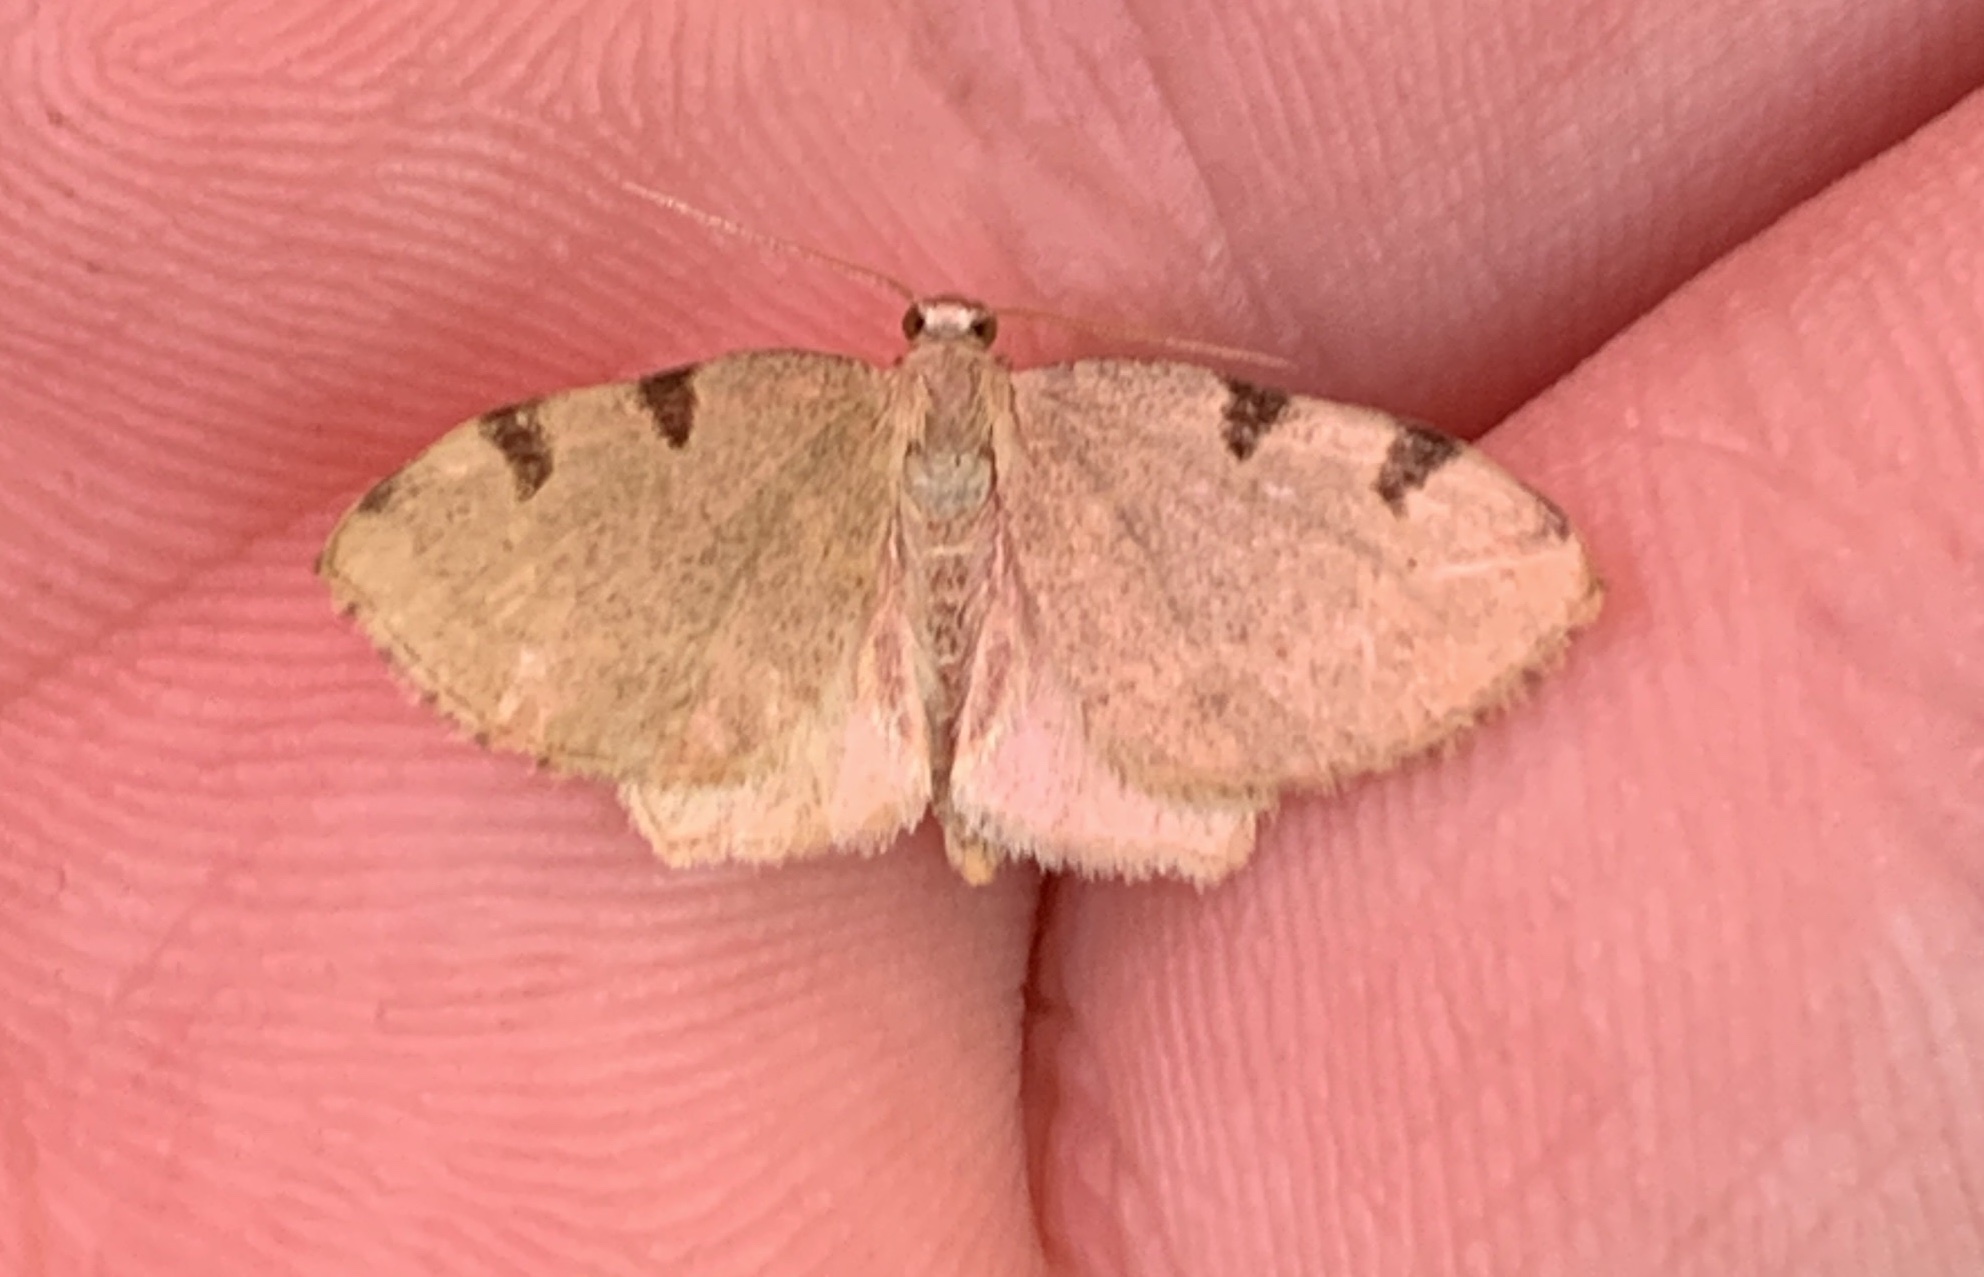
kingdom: Animalia
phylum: Arthropoda
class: Insecta
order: Lepidoptera
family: Geometridae
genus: Heterophleps
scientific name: Heterophleps triguttaria
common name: Three-spotted fillip
